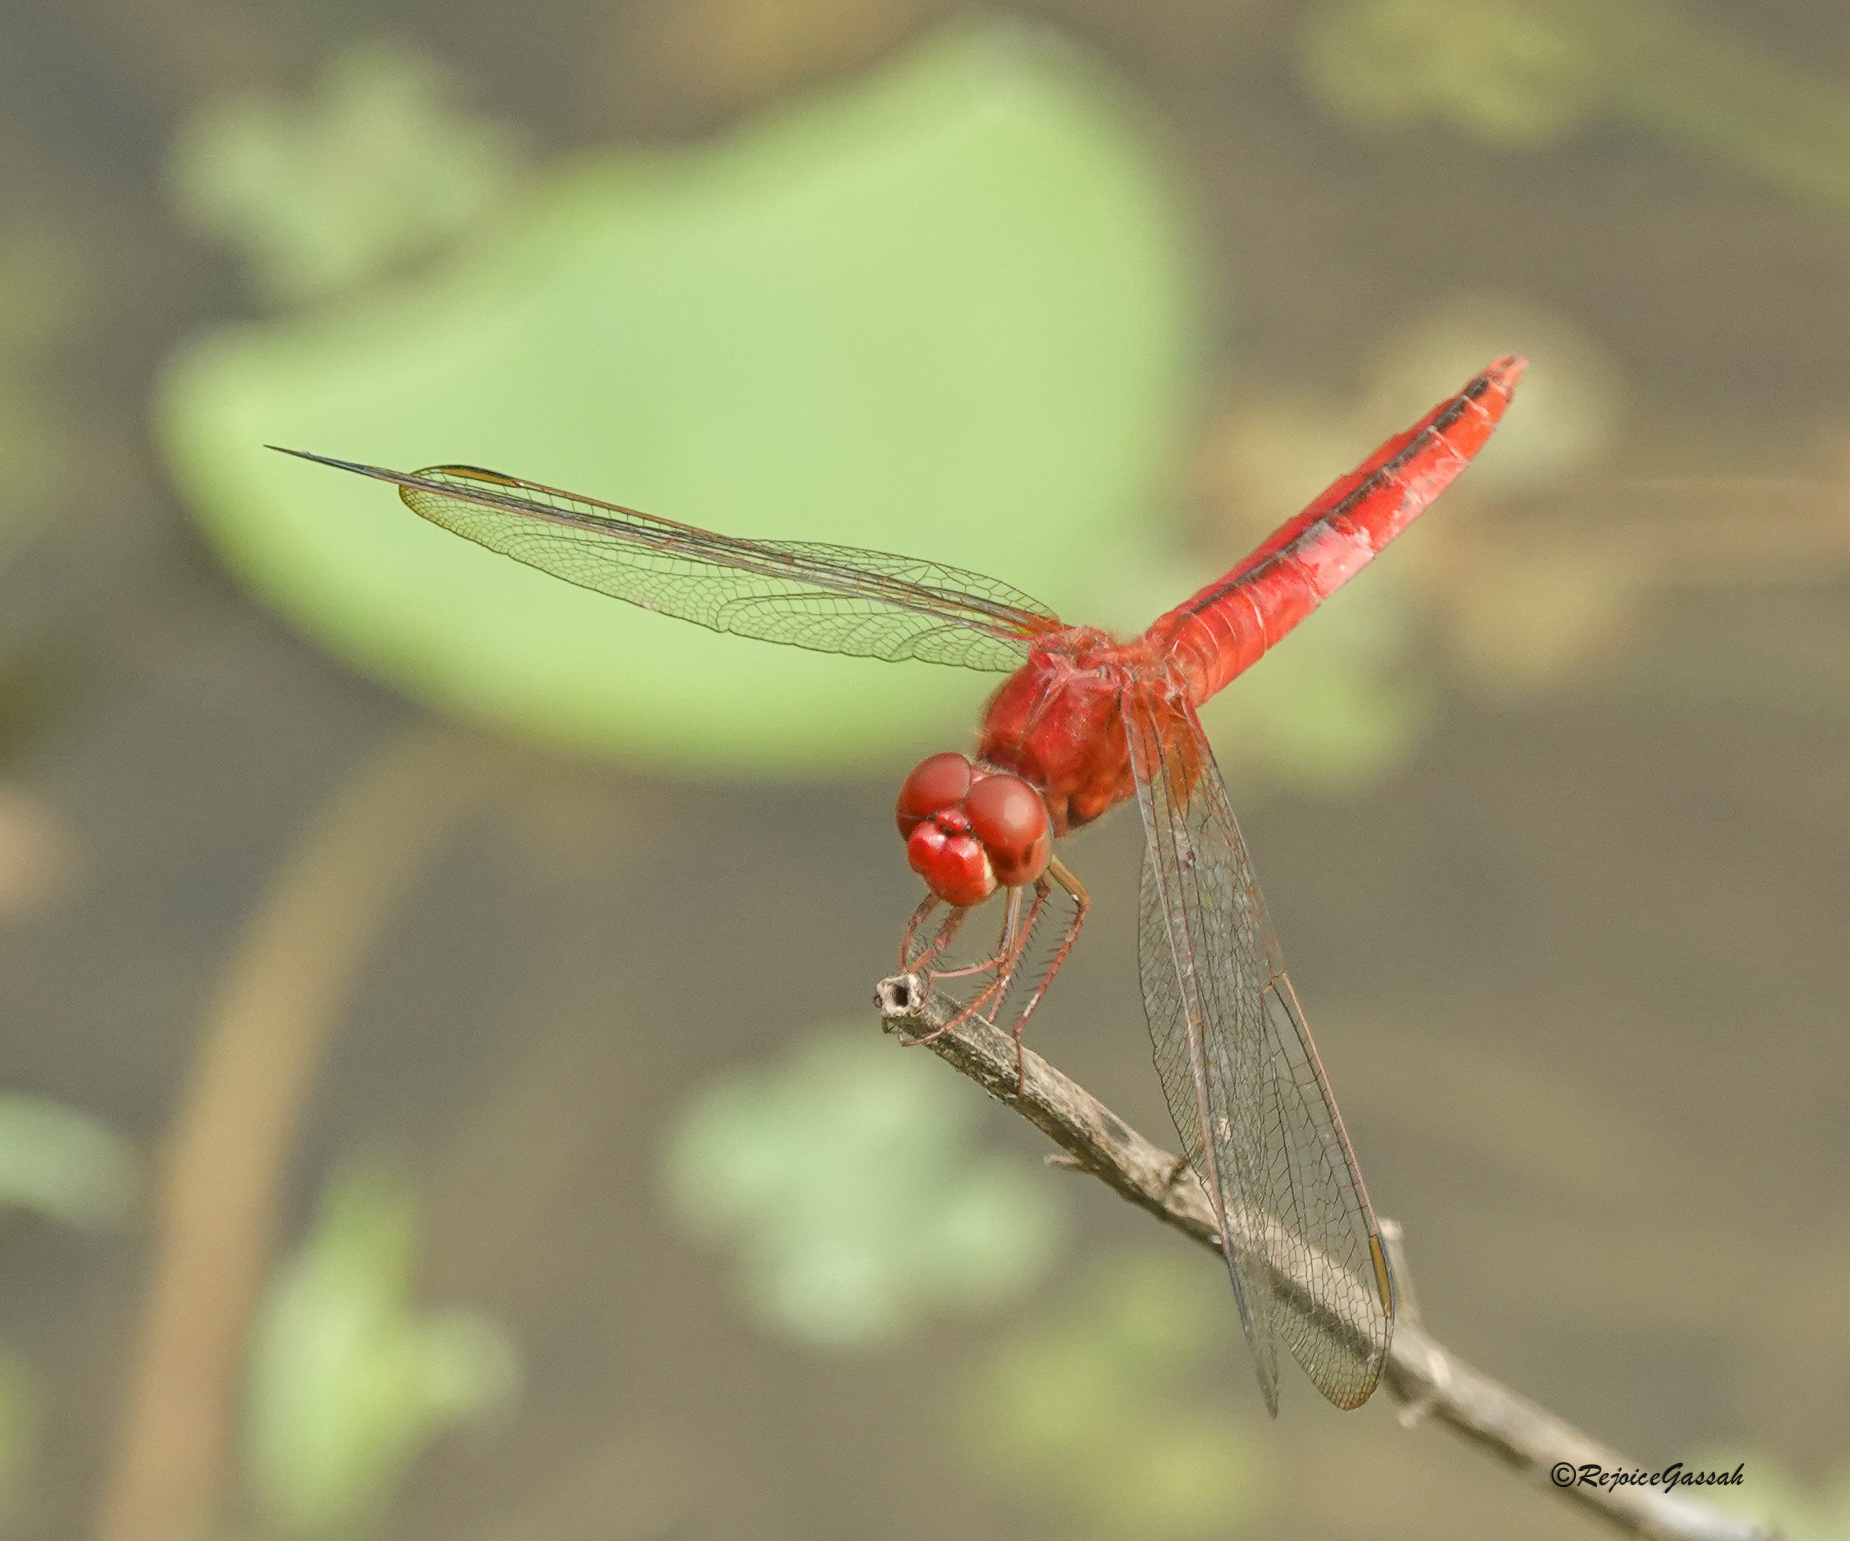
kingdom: Animalia
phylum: Arthropoda
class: Insecta
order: Odonata
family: Libellulidae
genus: Crocothemis
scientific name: Crocothemis servilia
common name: Scarlet skimmer
